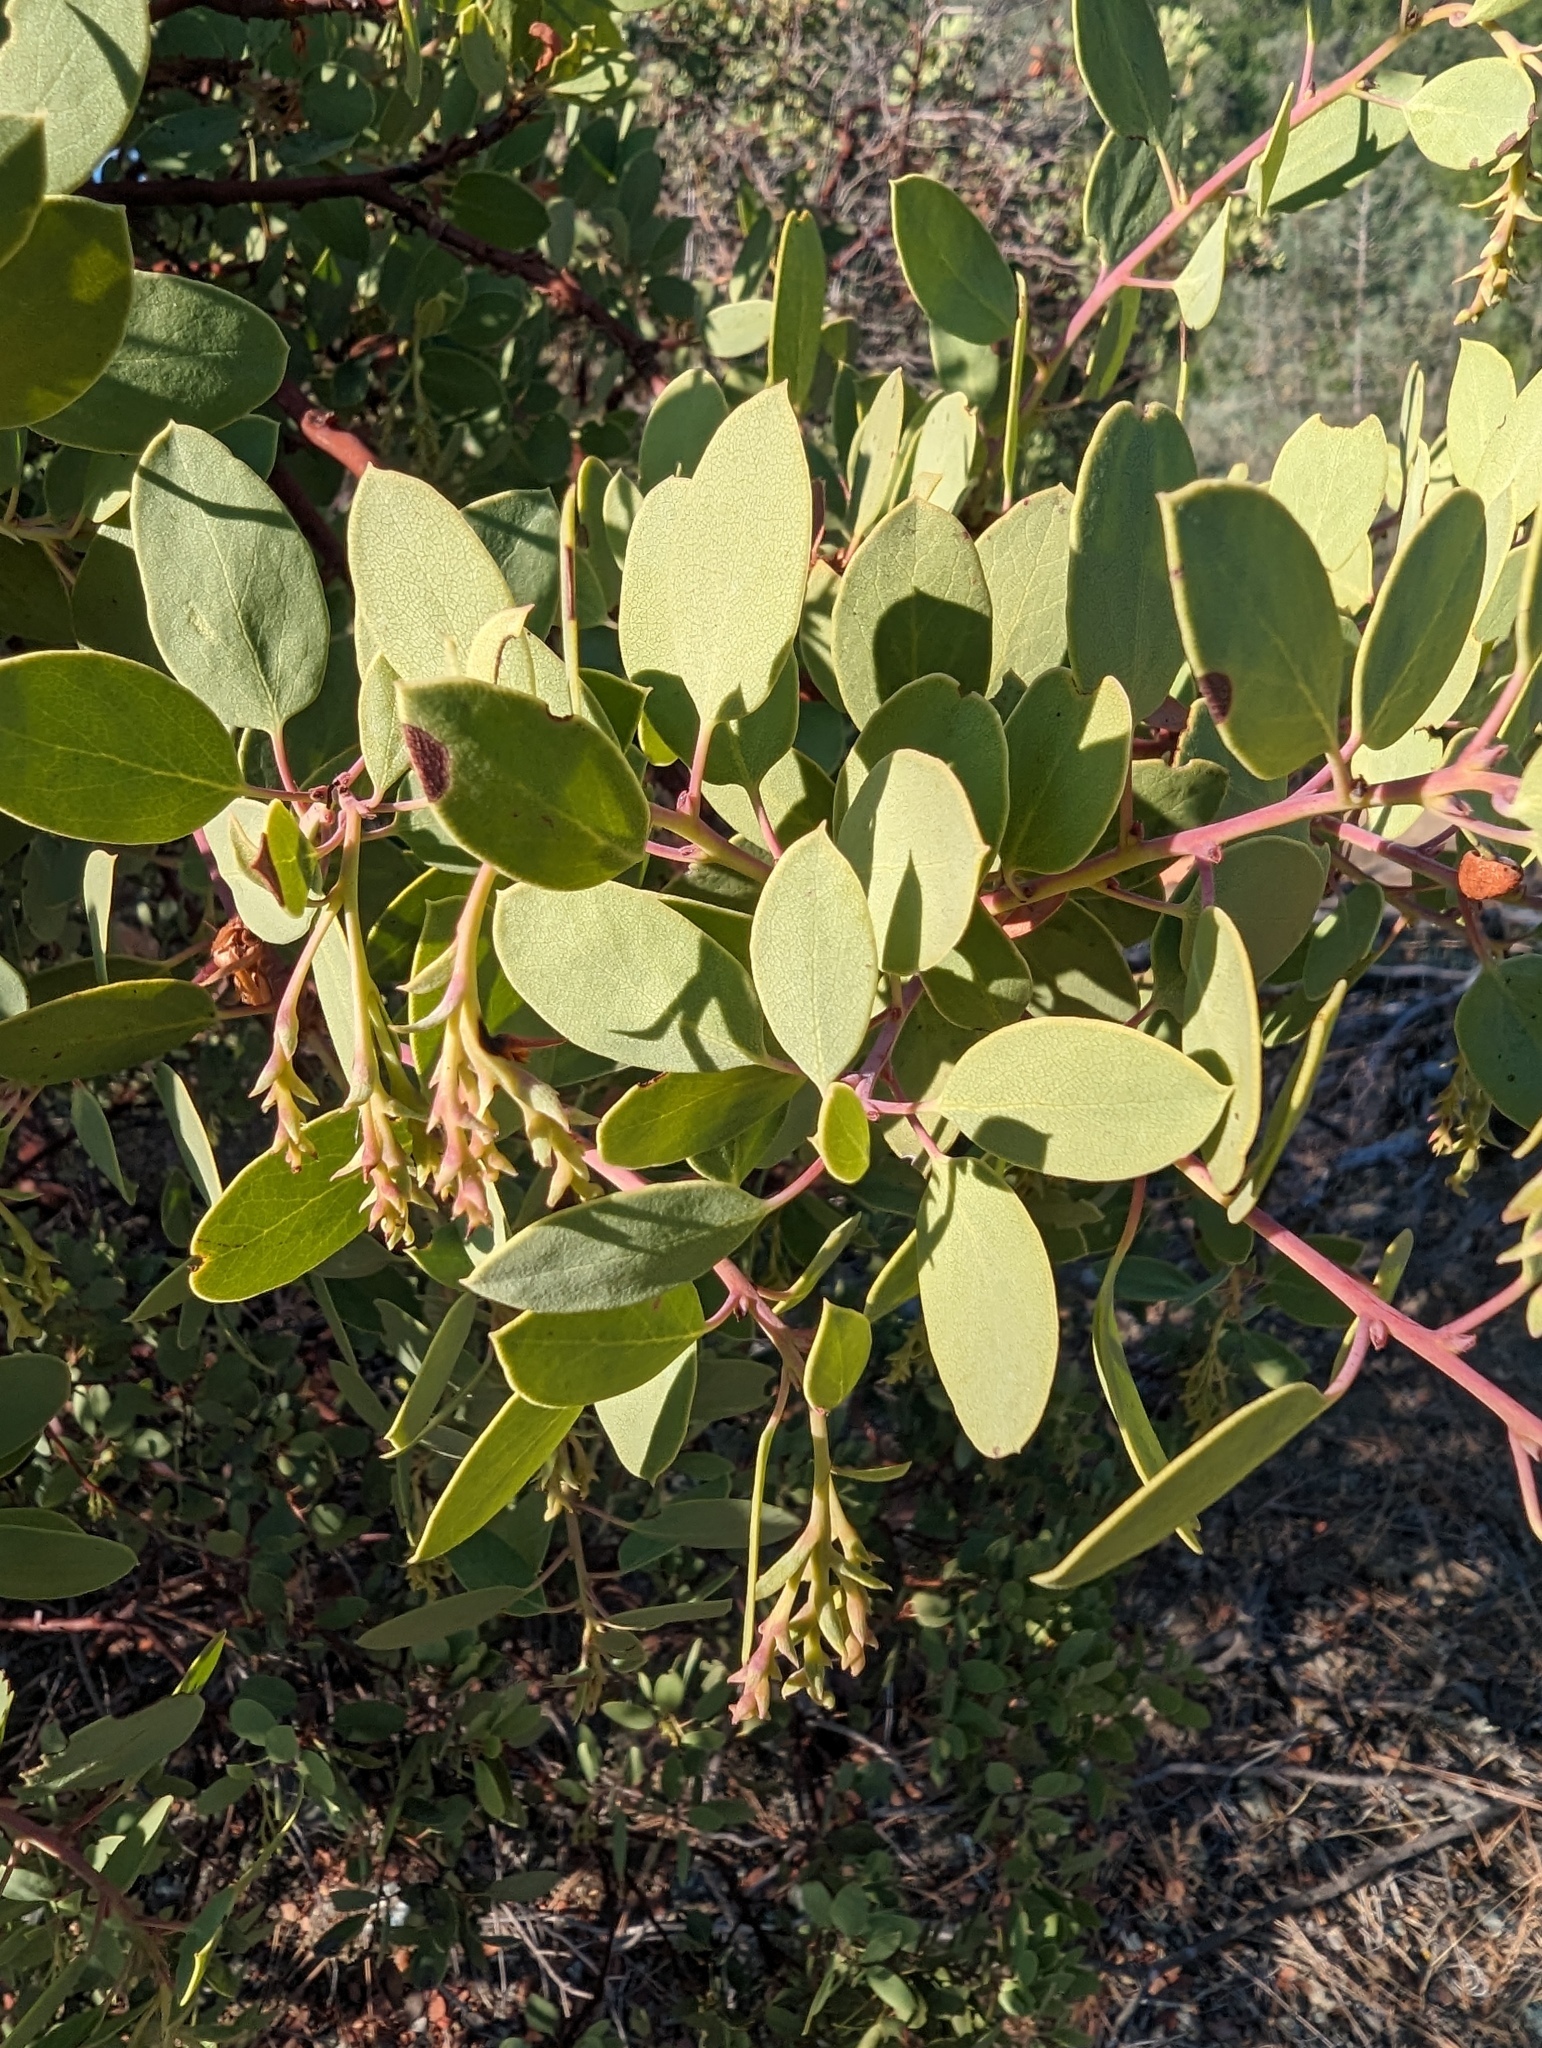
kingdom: Plantae
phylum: Tracheophyta
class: Magnoliopsida
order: Ericales
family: Ericaceae
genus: Arctostaphylos
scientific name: Arctostaphylos glauca
